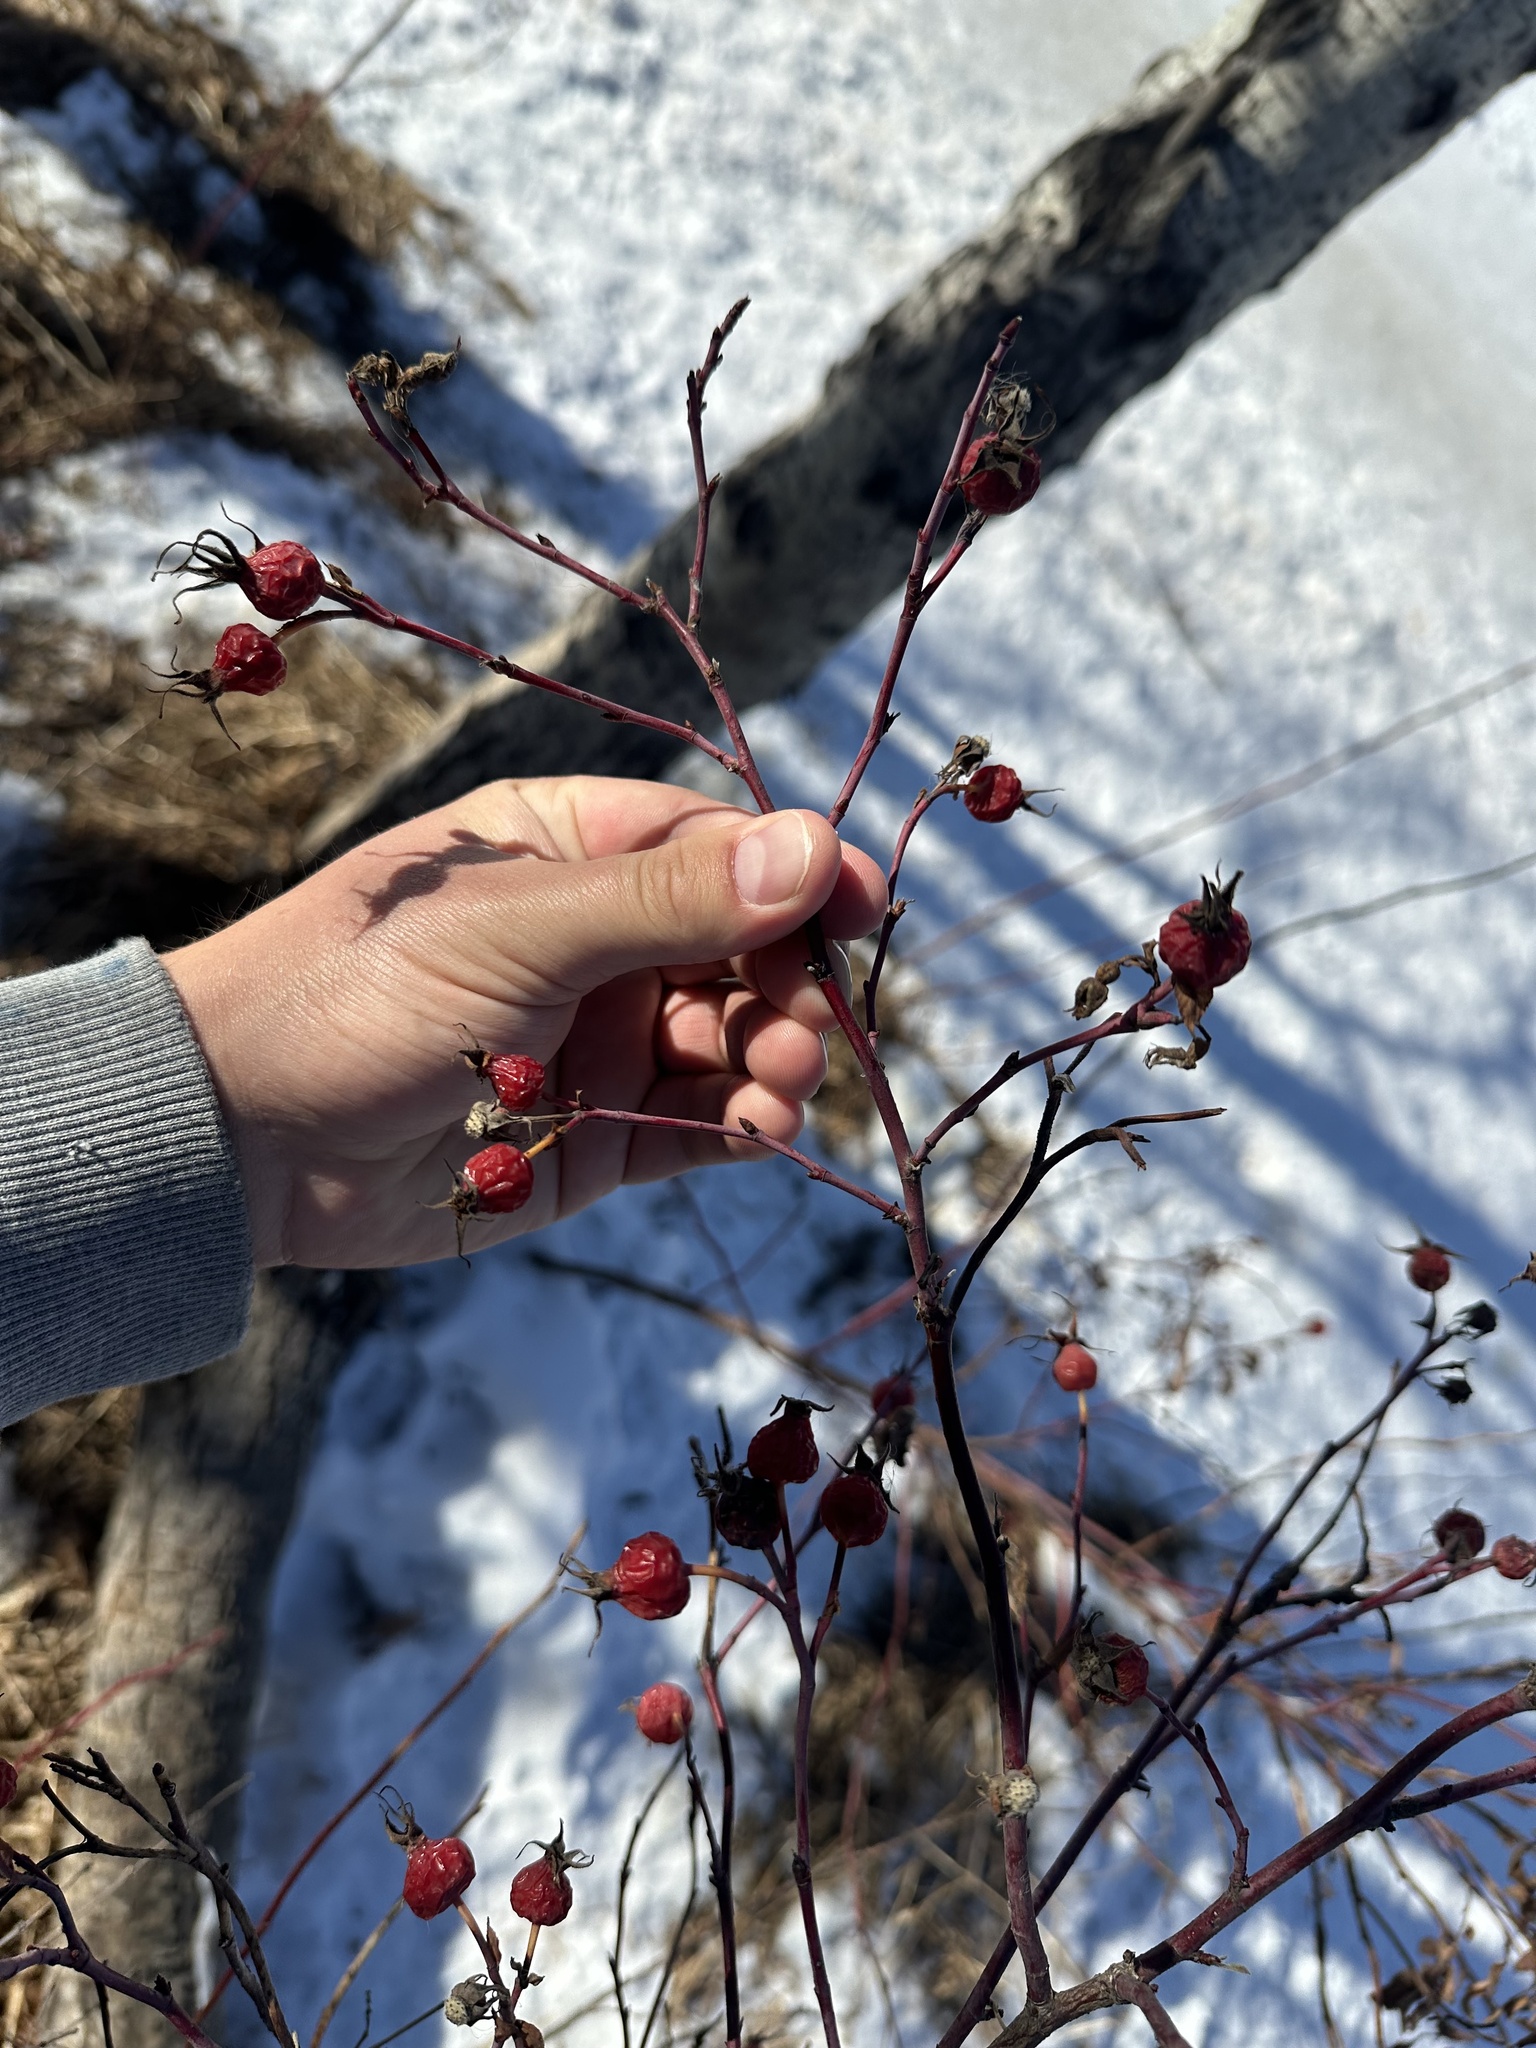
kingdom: Plantae
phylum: Tracheophyta
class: Magnoliopsida
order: Rosales
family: Rosaceae
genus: Rosa
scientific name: Rosa woodsii
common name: Woods's rose
